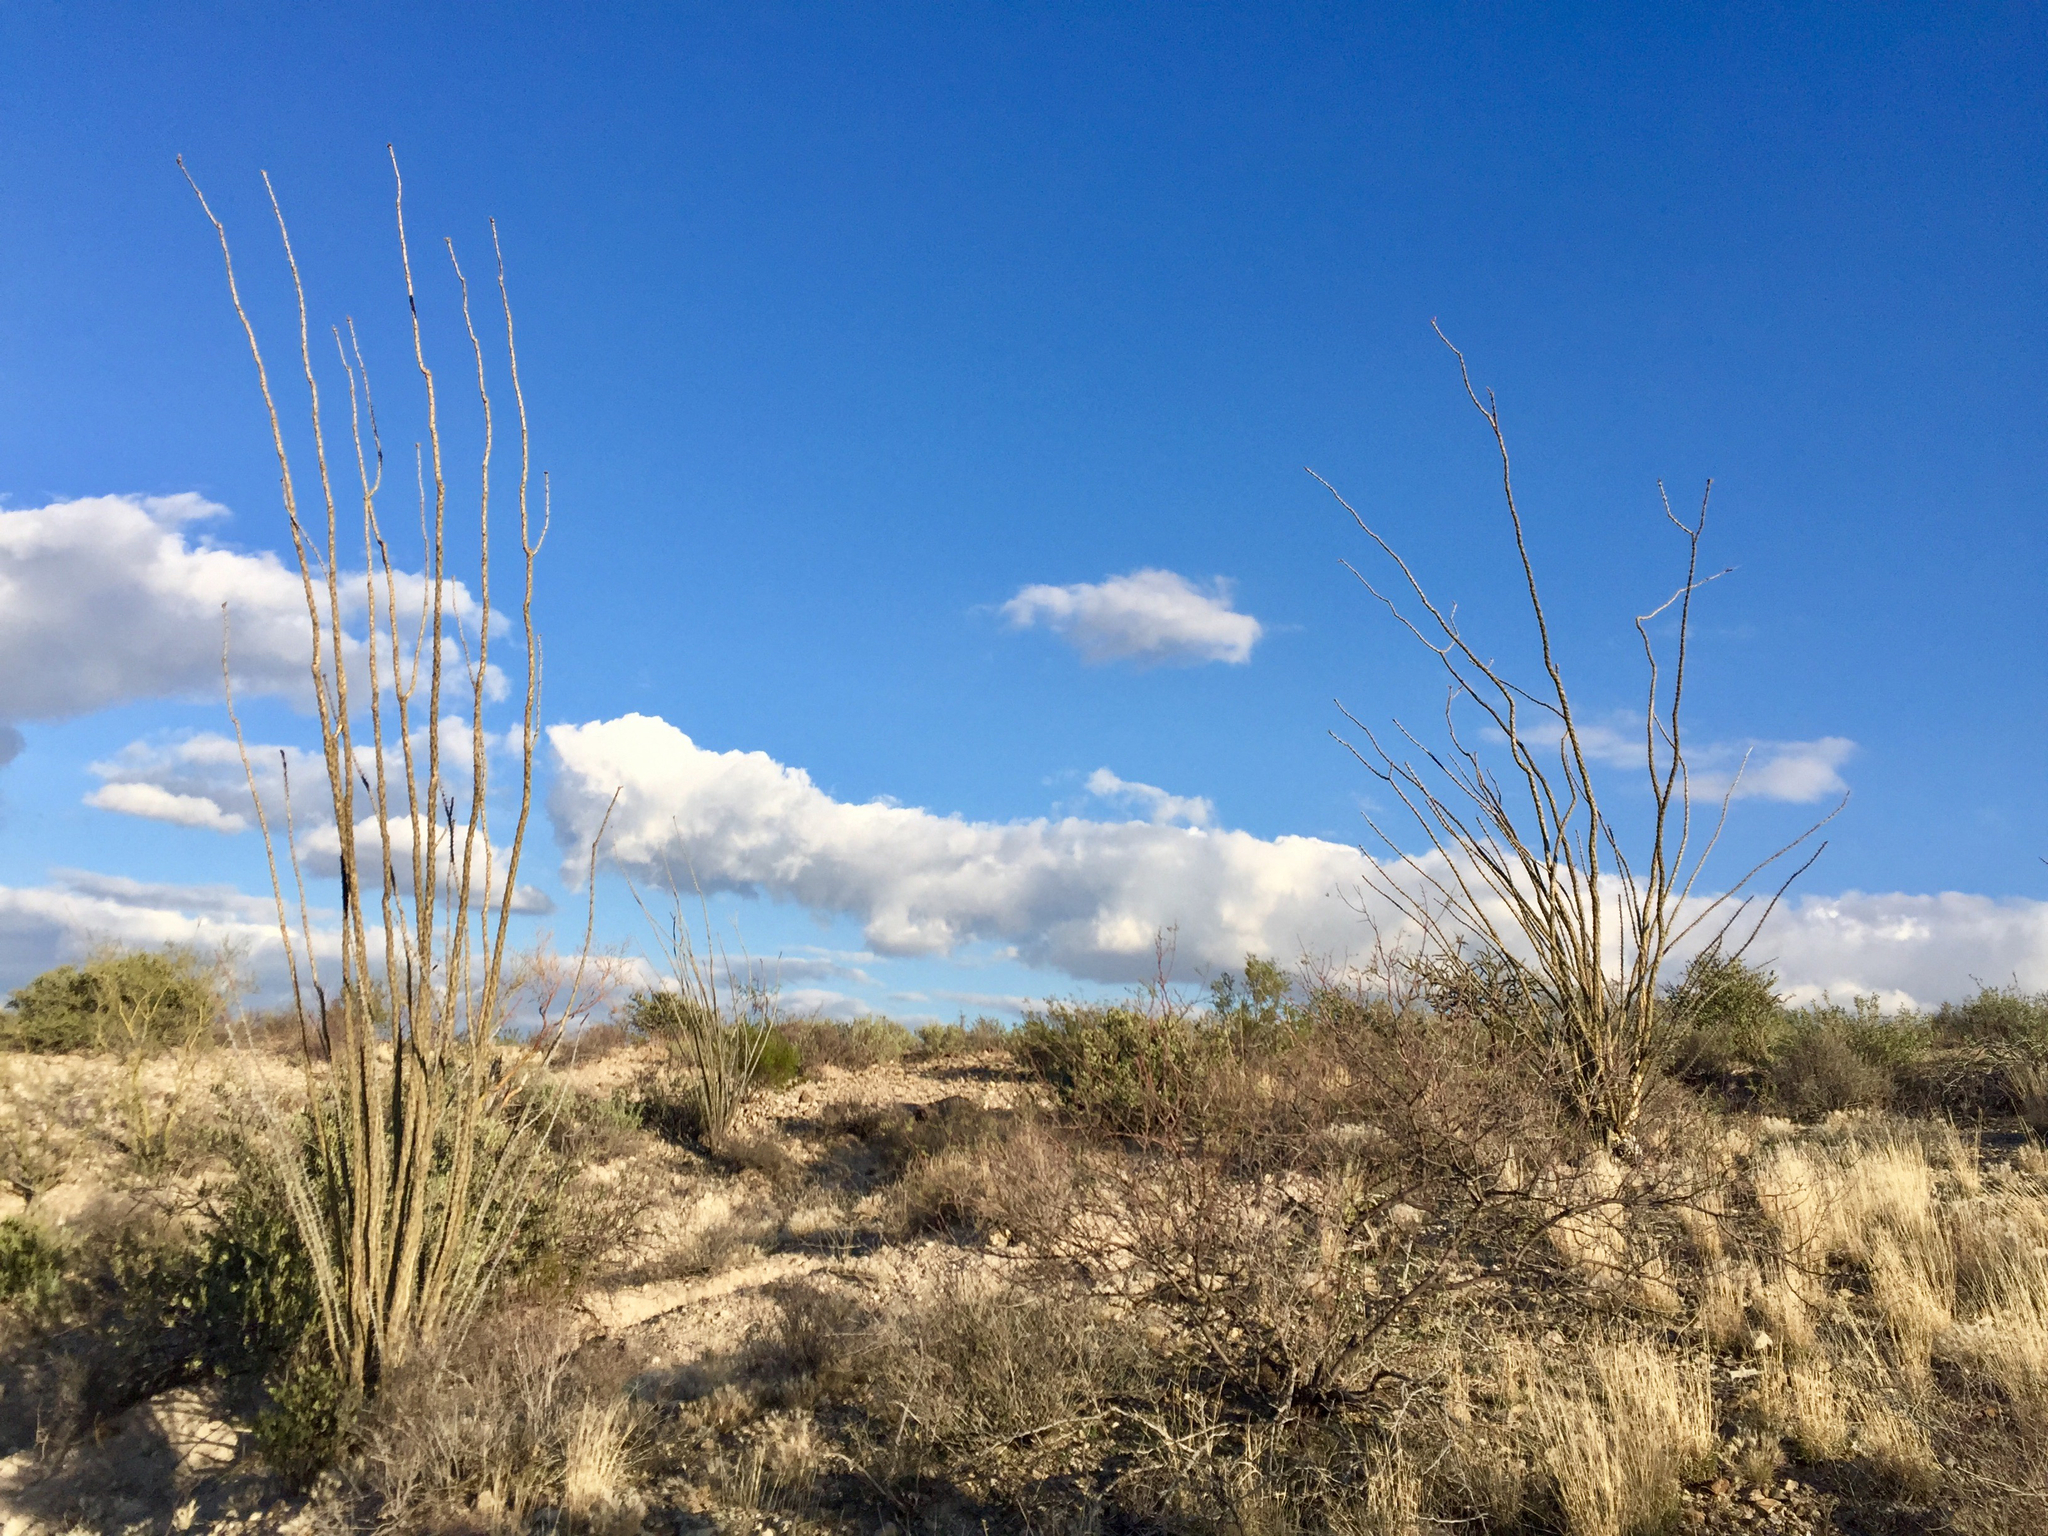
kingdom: Plantae
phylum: Tracheophyta
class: Magnoliopsida
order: Ericales
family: Fouquieriaceae
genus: Fouquieria
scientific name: Fouquieria splendens
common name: Vine-cactus
